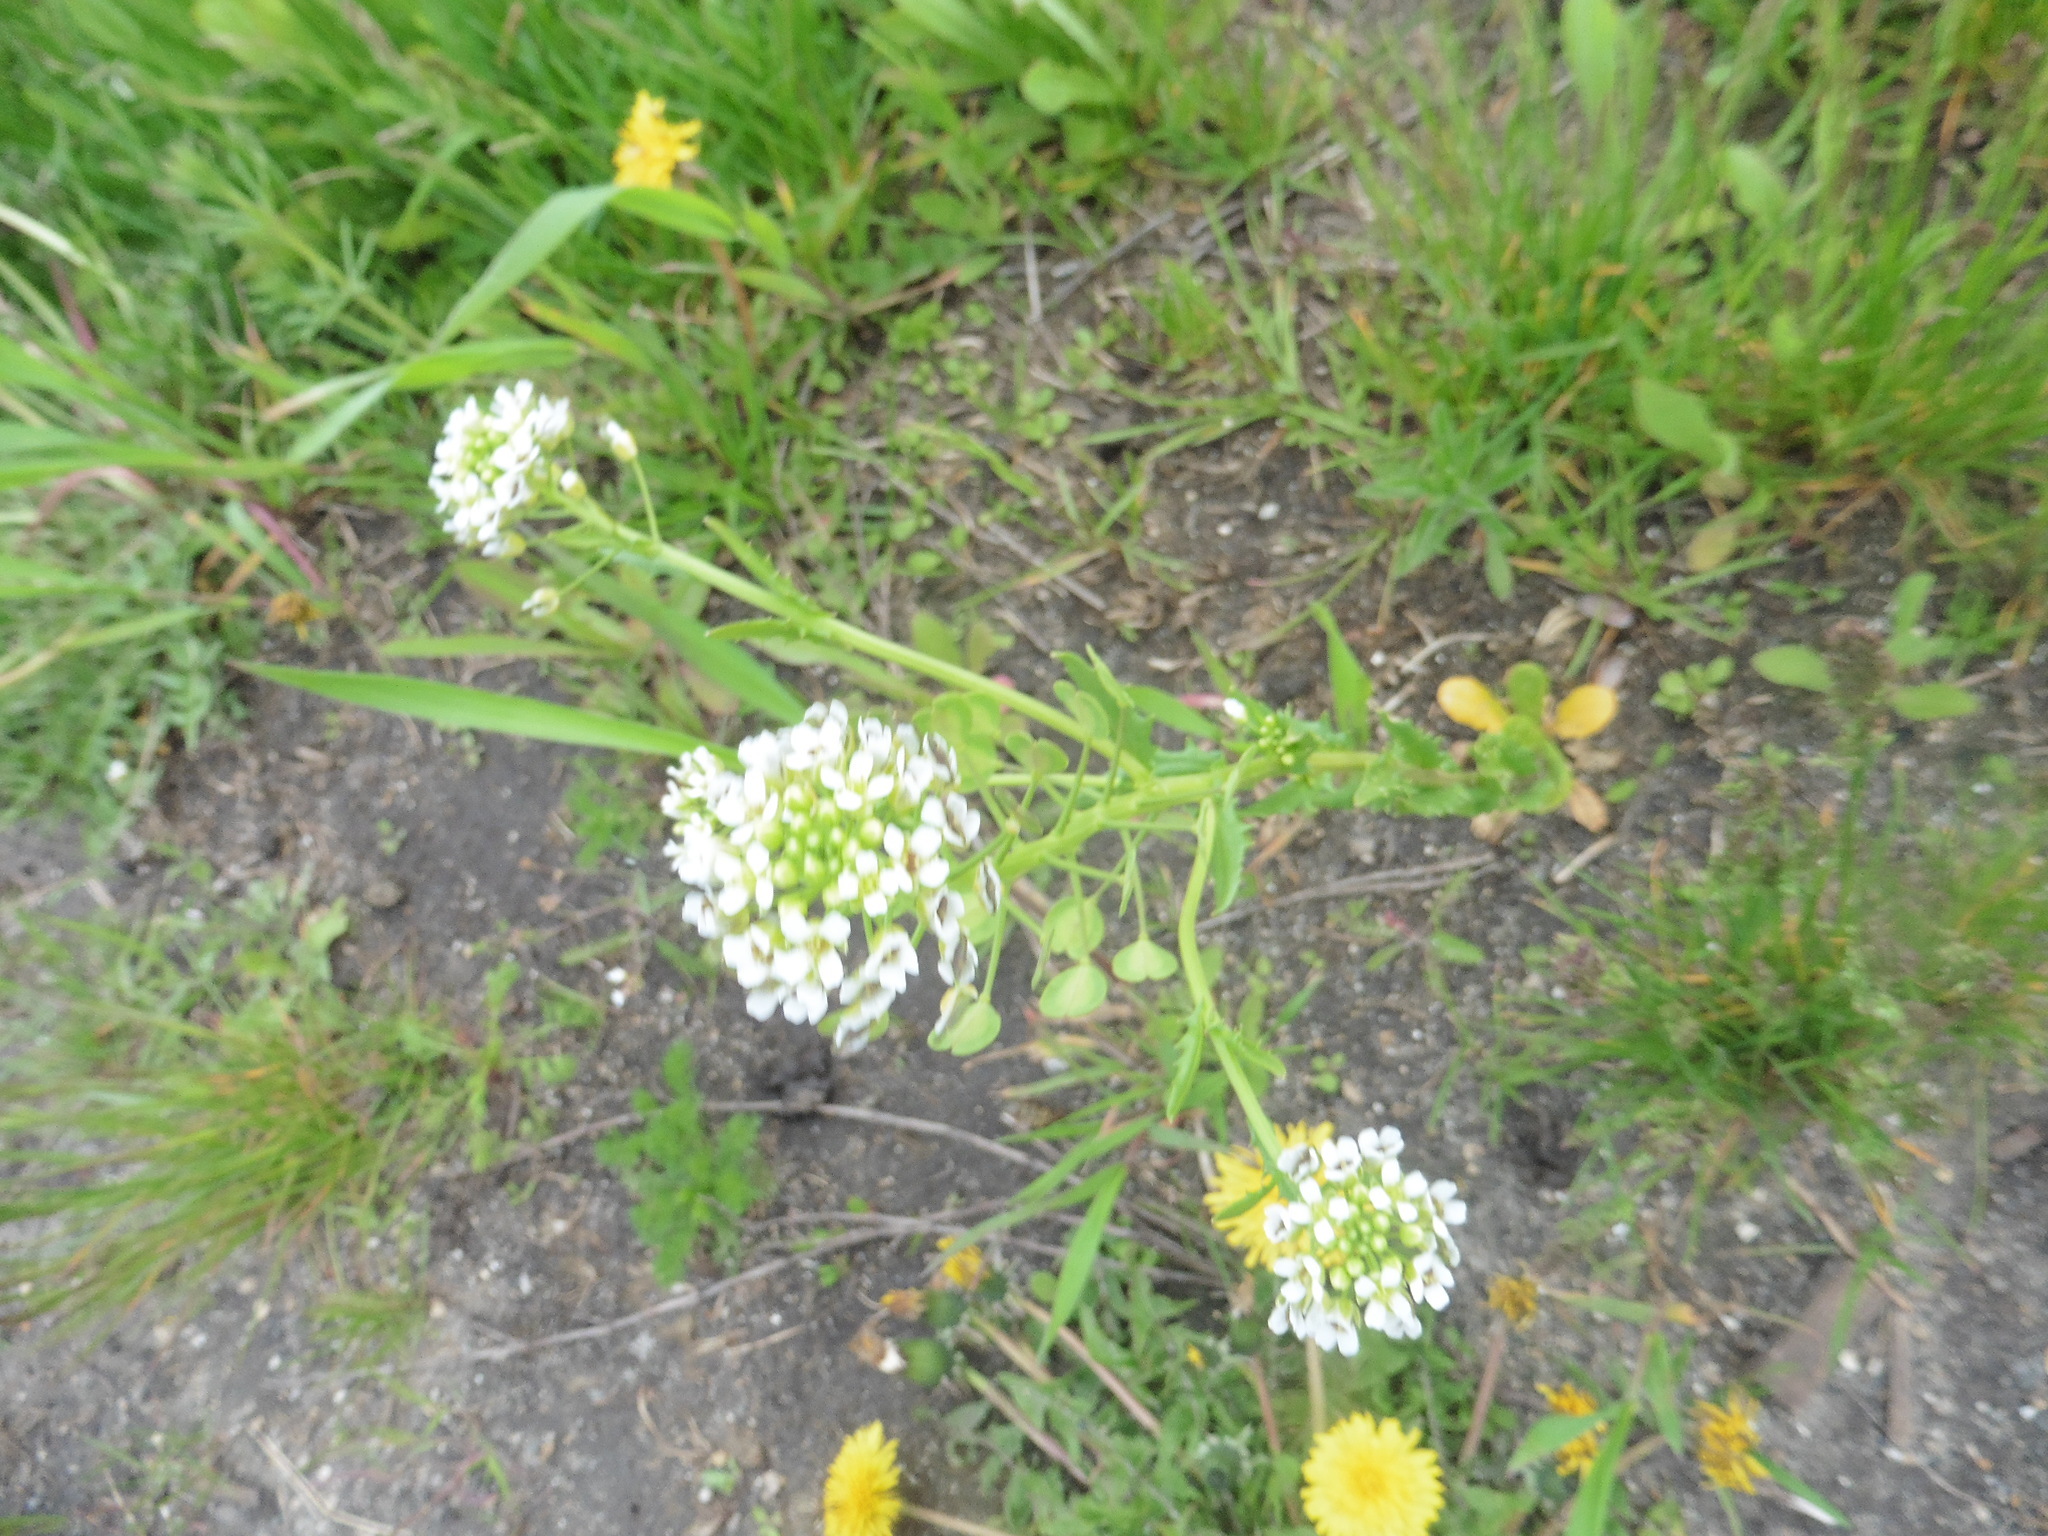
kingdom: Plantae
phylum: Tracheophyta
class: Magnoliopsida
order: Brassicales
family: Brassicaceae
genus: Thlaspi
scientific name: Thlaspi arvense
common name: Field pennycress
